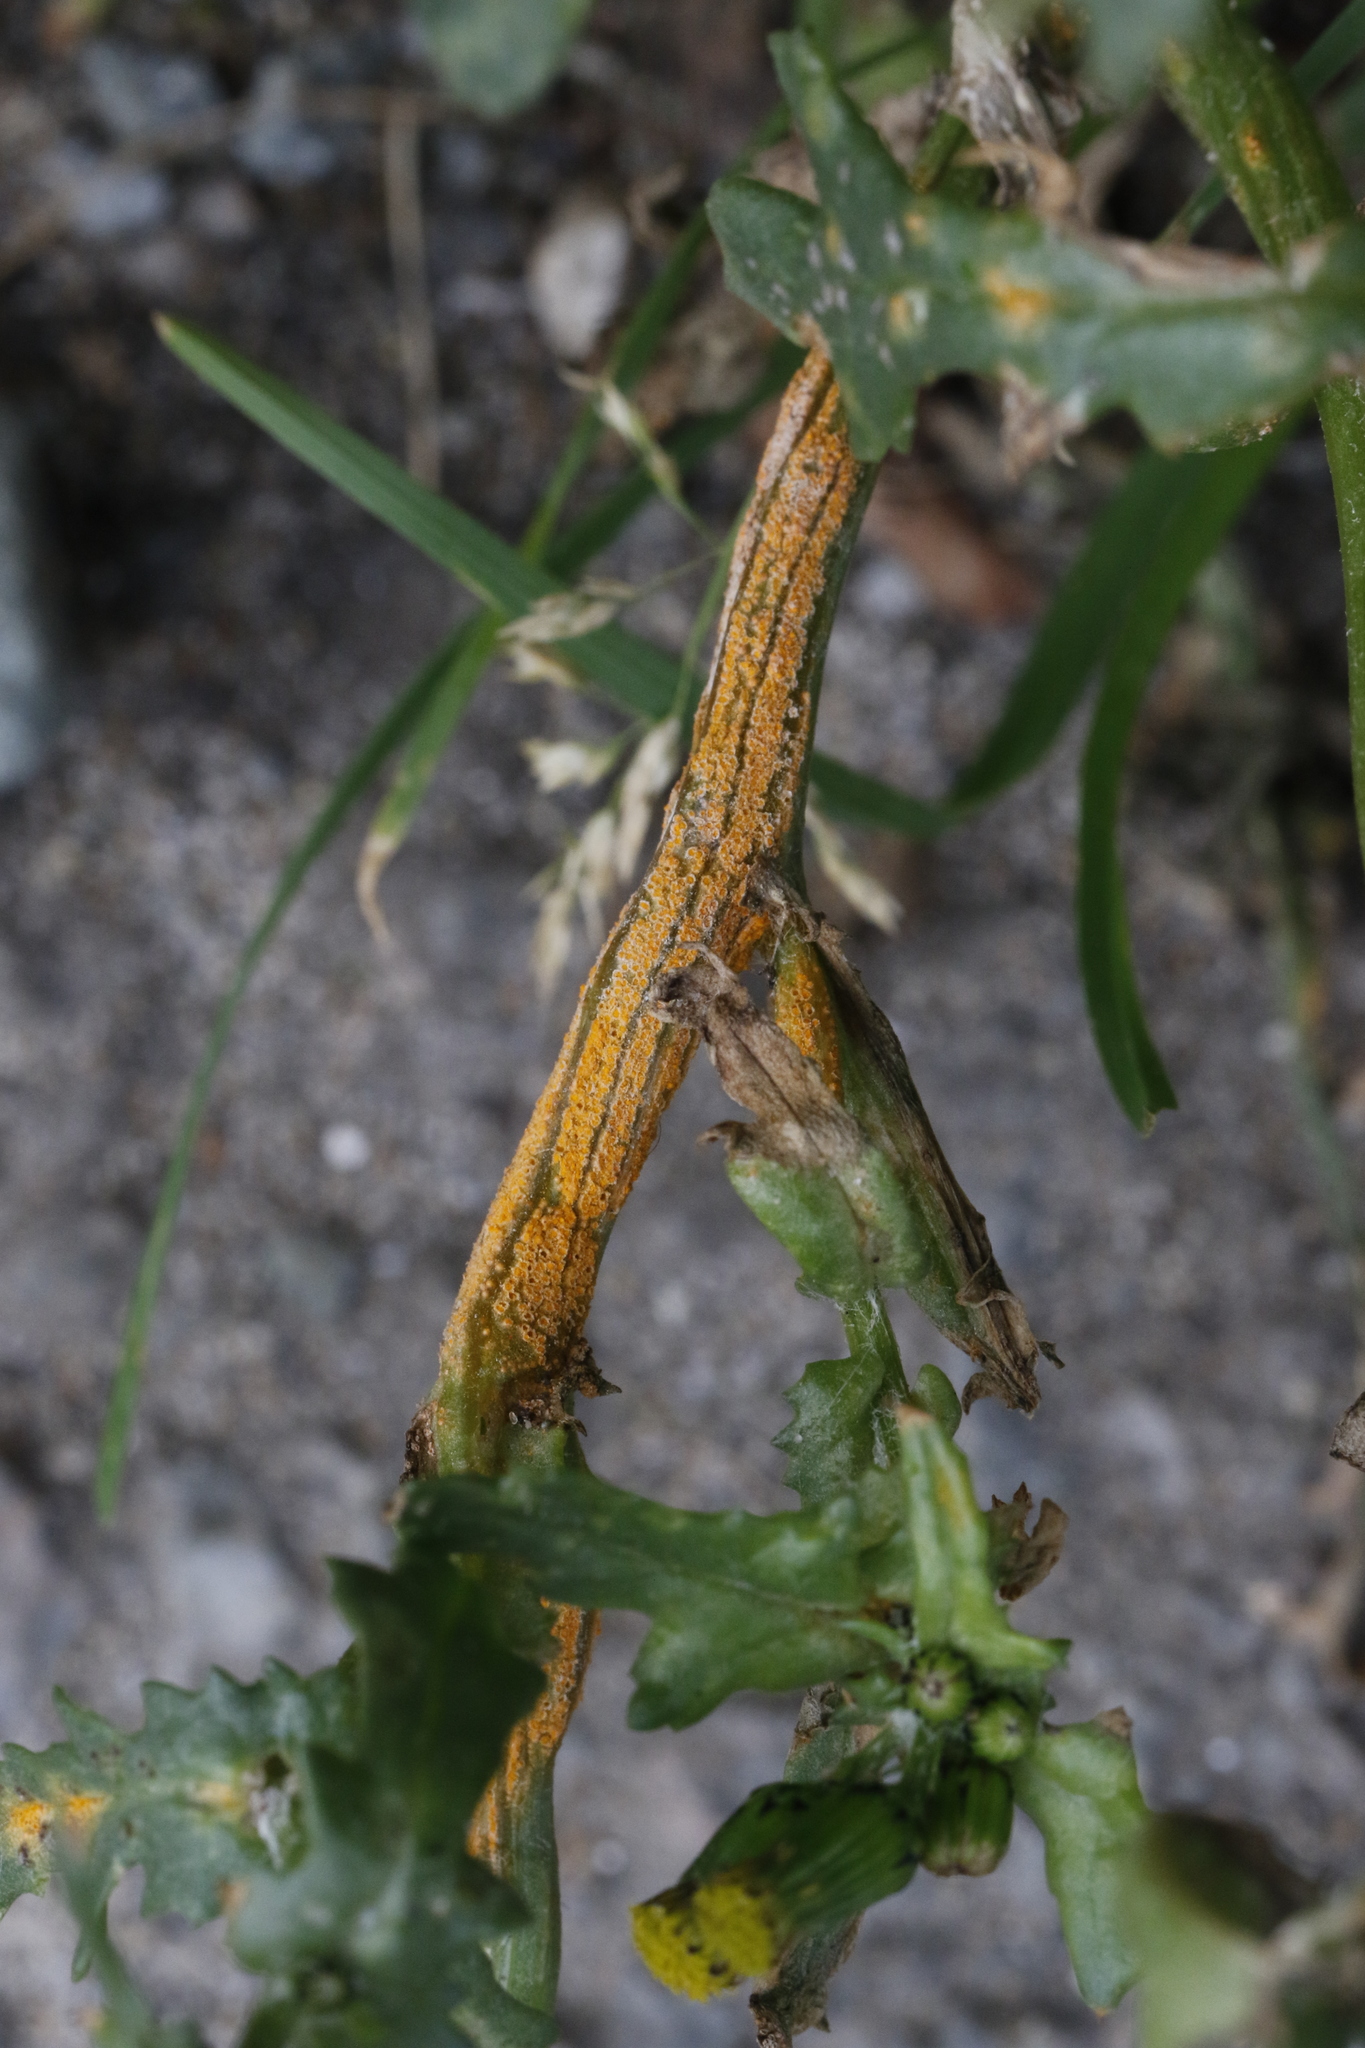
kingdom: Fungi
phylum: Basidiomycota
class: Pucciniomycetes
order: Pucciniales
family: Pucciniaceae
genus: Puccinia
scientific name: Puccinia lagenophorae
